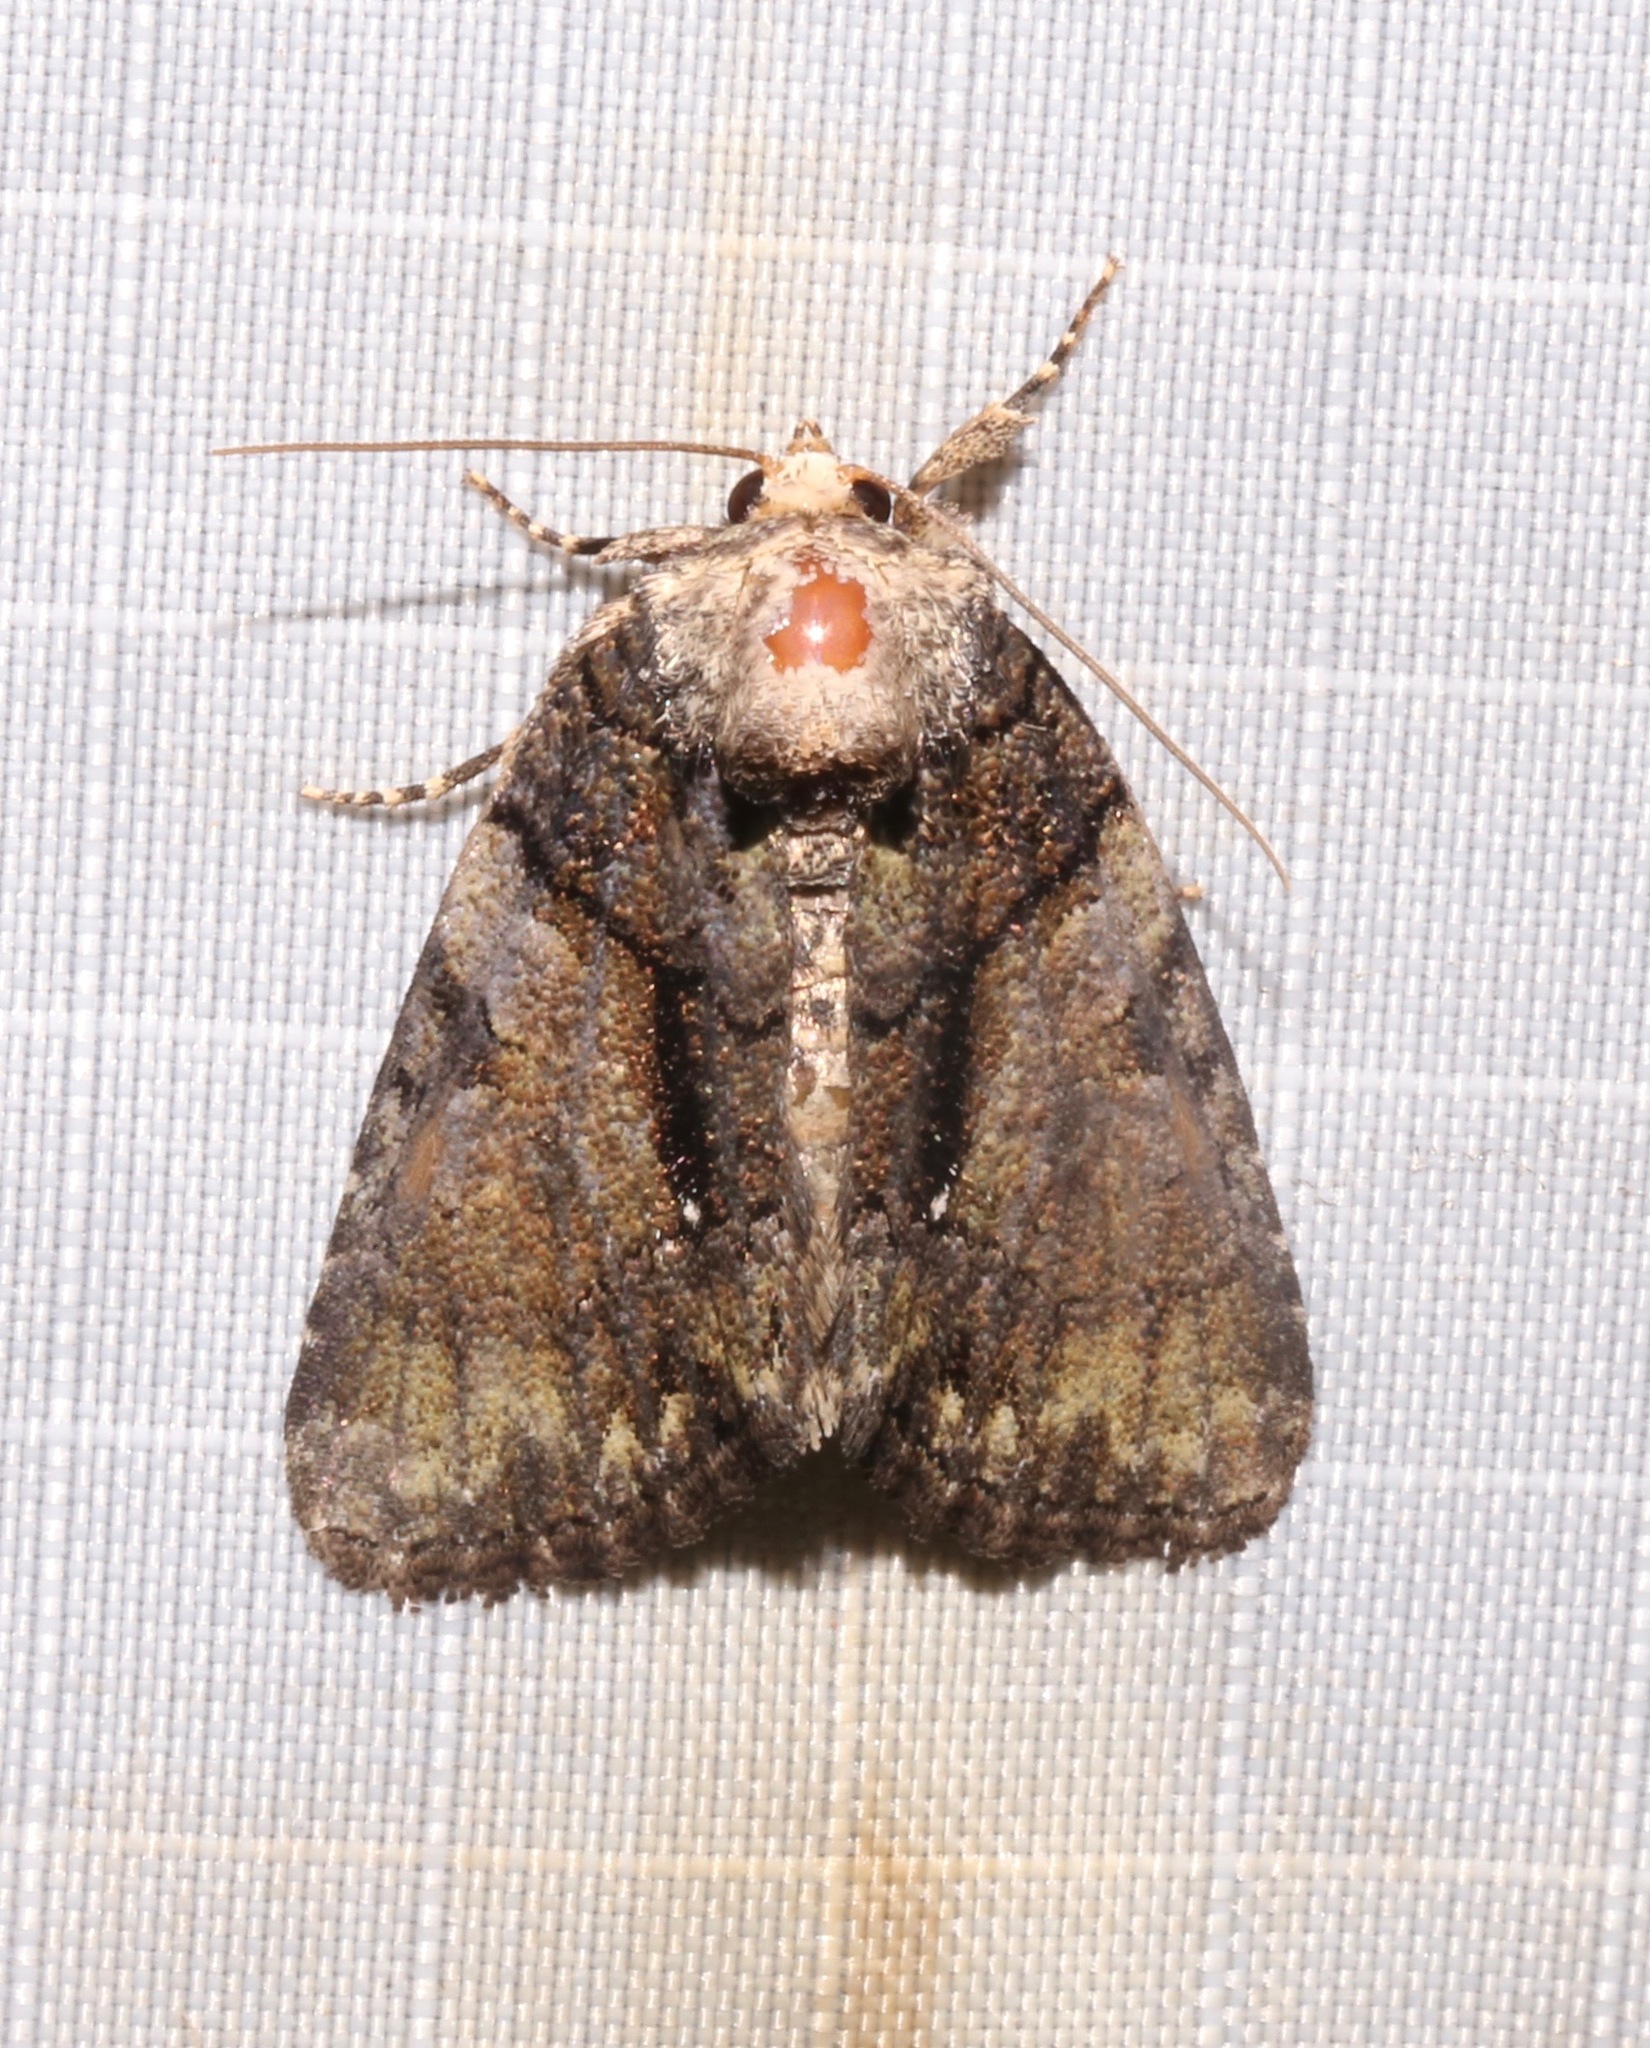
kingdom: Animalia
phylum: Arthropoda
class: Insecta
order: Lepidoptera
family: Noctuidae
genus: Chytonix
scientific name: Chytonix palliatricula
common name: Cloaked marvel
